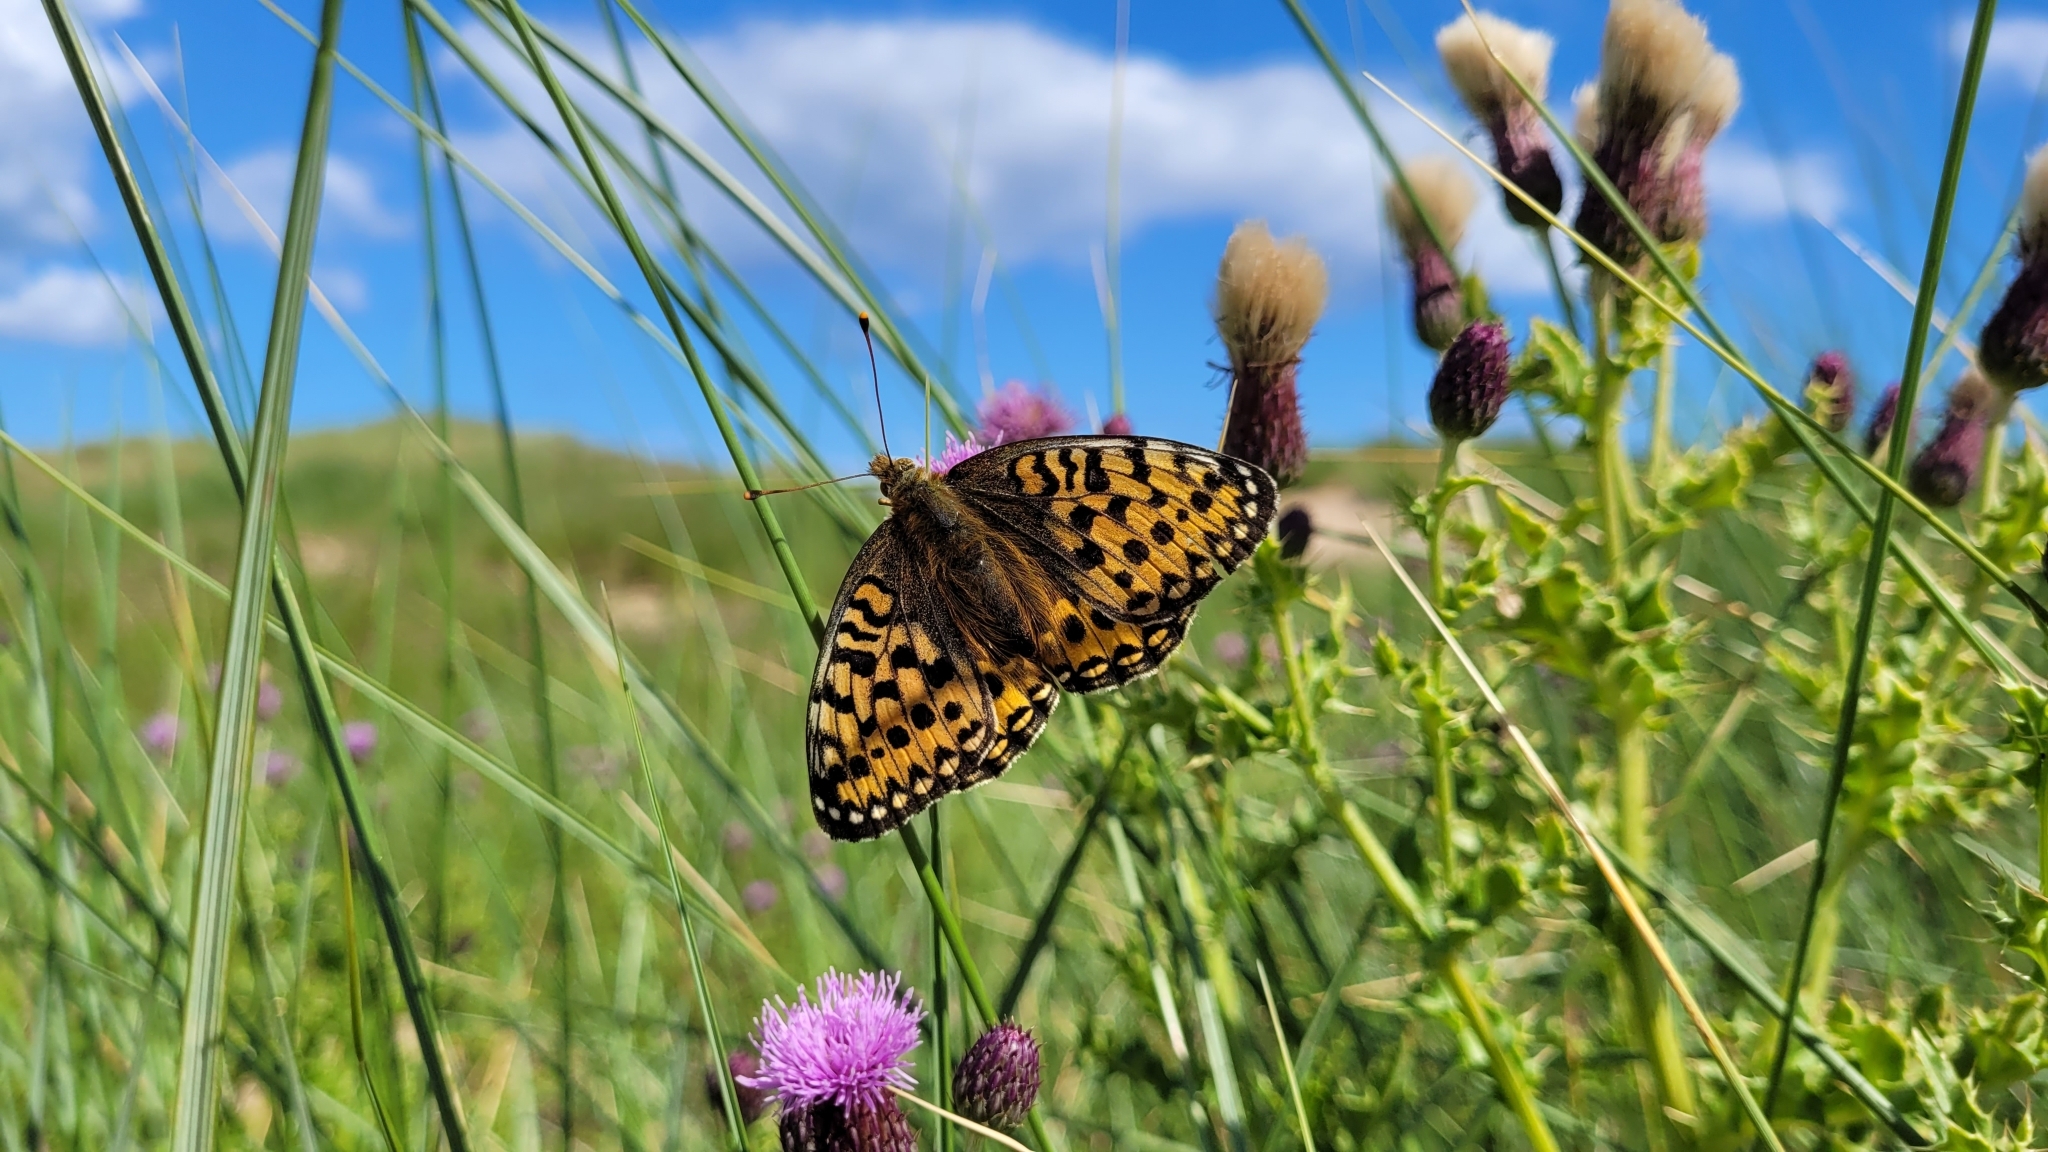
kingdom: Animalia
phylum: Arthropoda
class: Insecta
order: Lepidoptera
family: Nymphalidae
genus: Speyeria
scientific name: Speyeria aglaja
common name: Dark green fritillary
